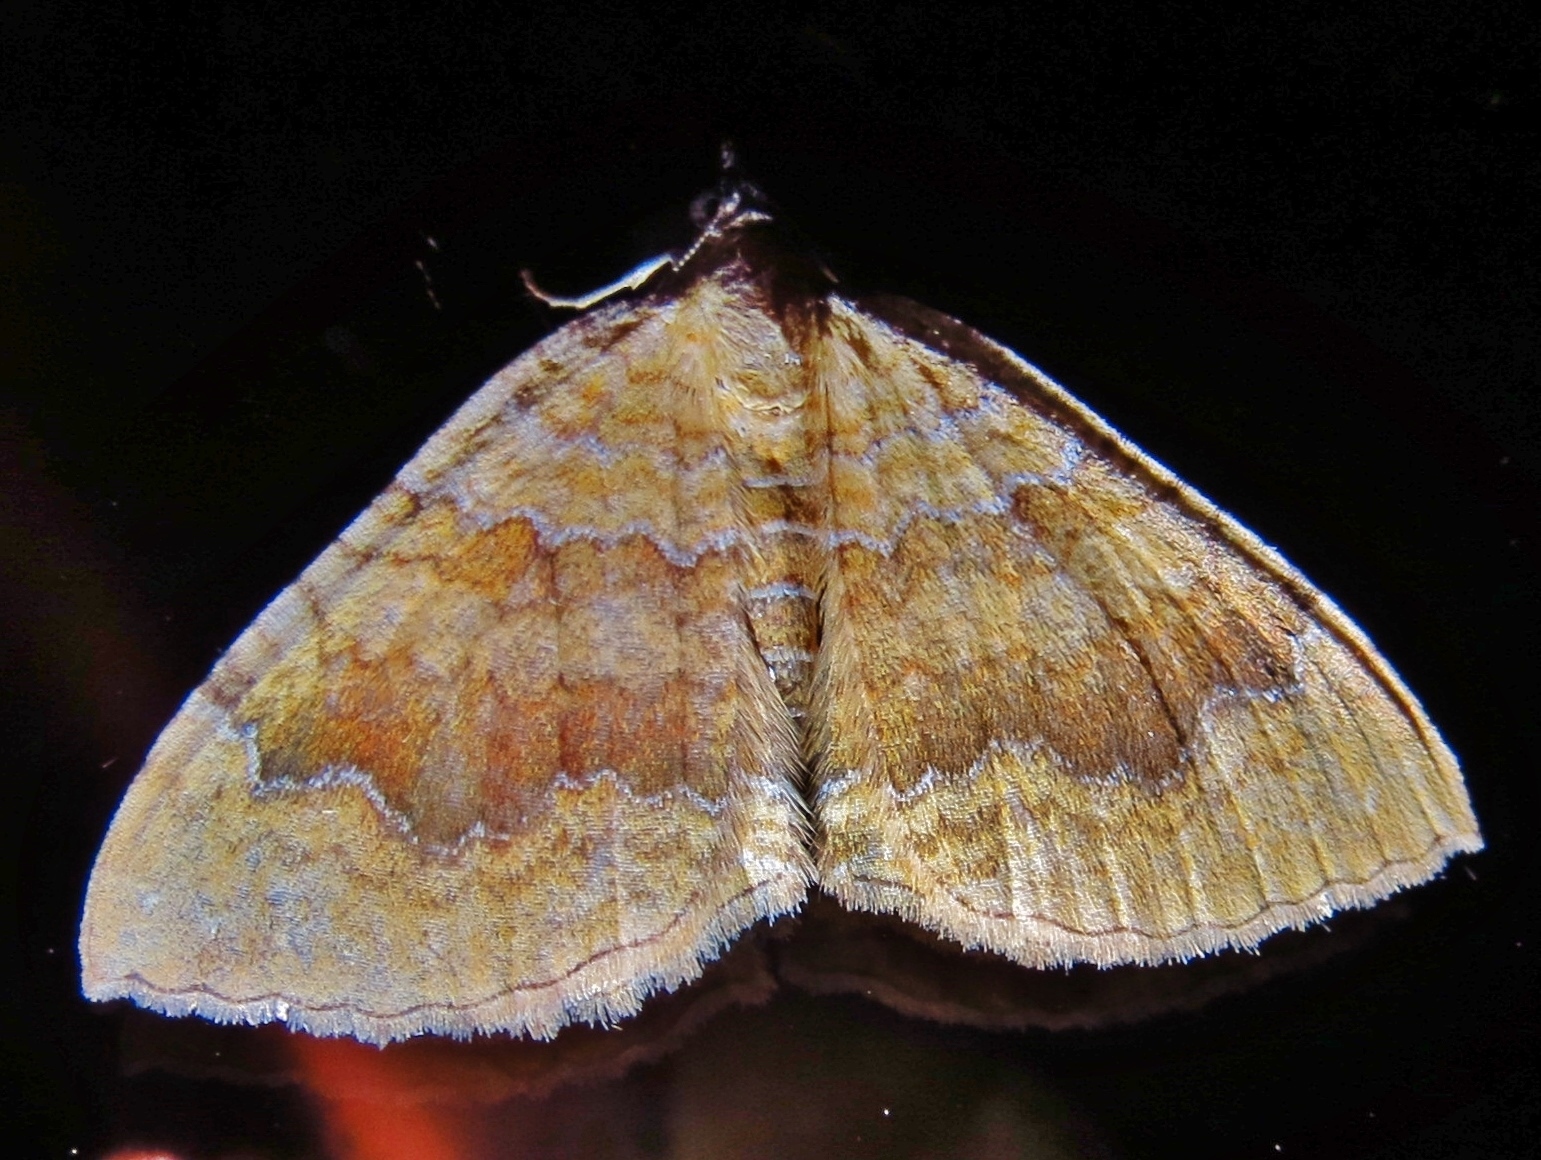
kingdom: Animalia
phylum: Arthropoda
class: Insecta
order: Lepidoptera
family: Geometridae
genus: Camptogramma
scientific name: Camptogramma bilineata
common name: Yellow shell
